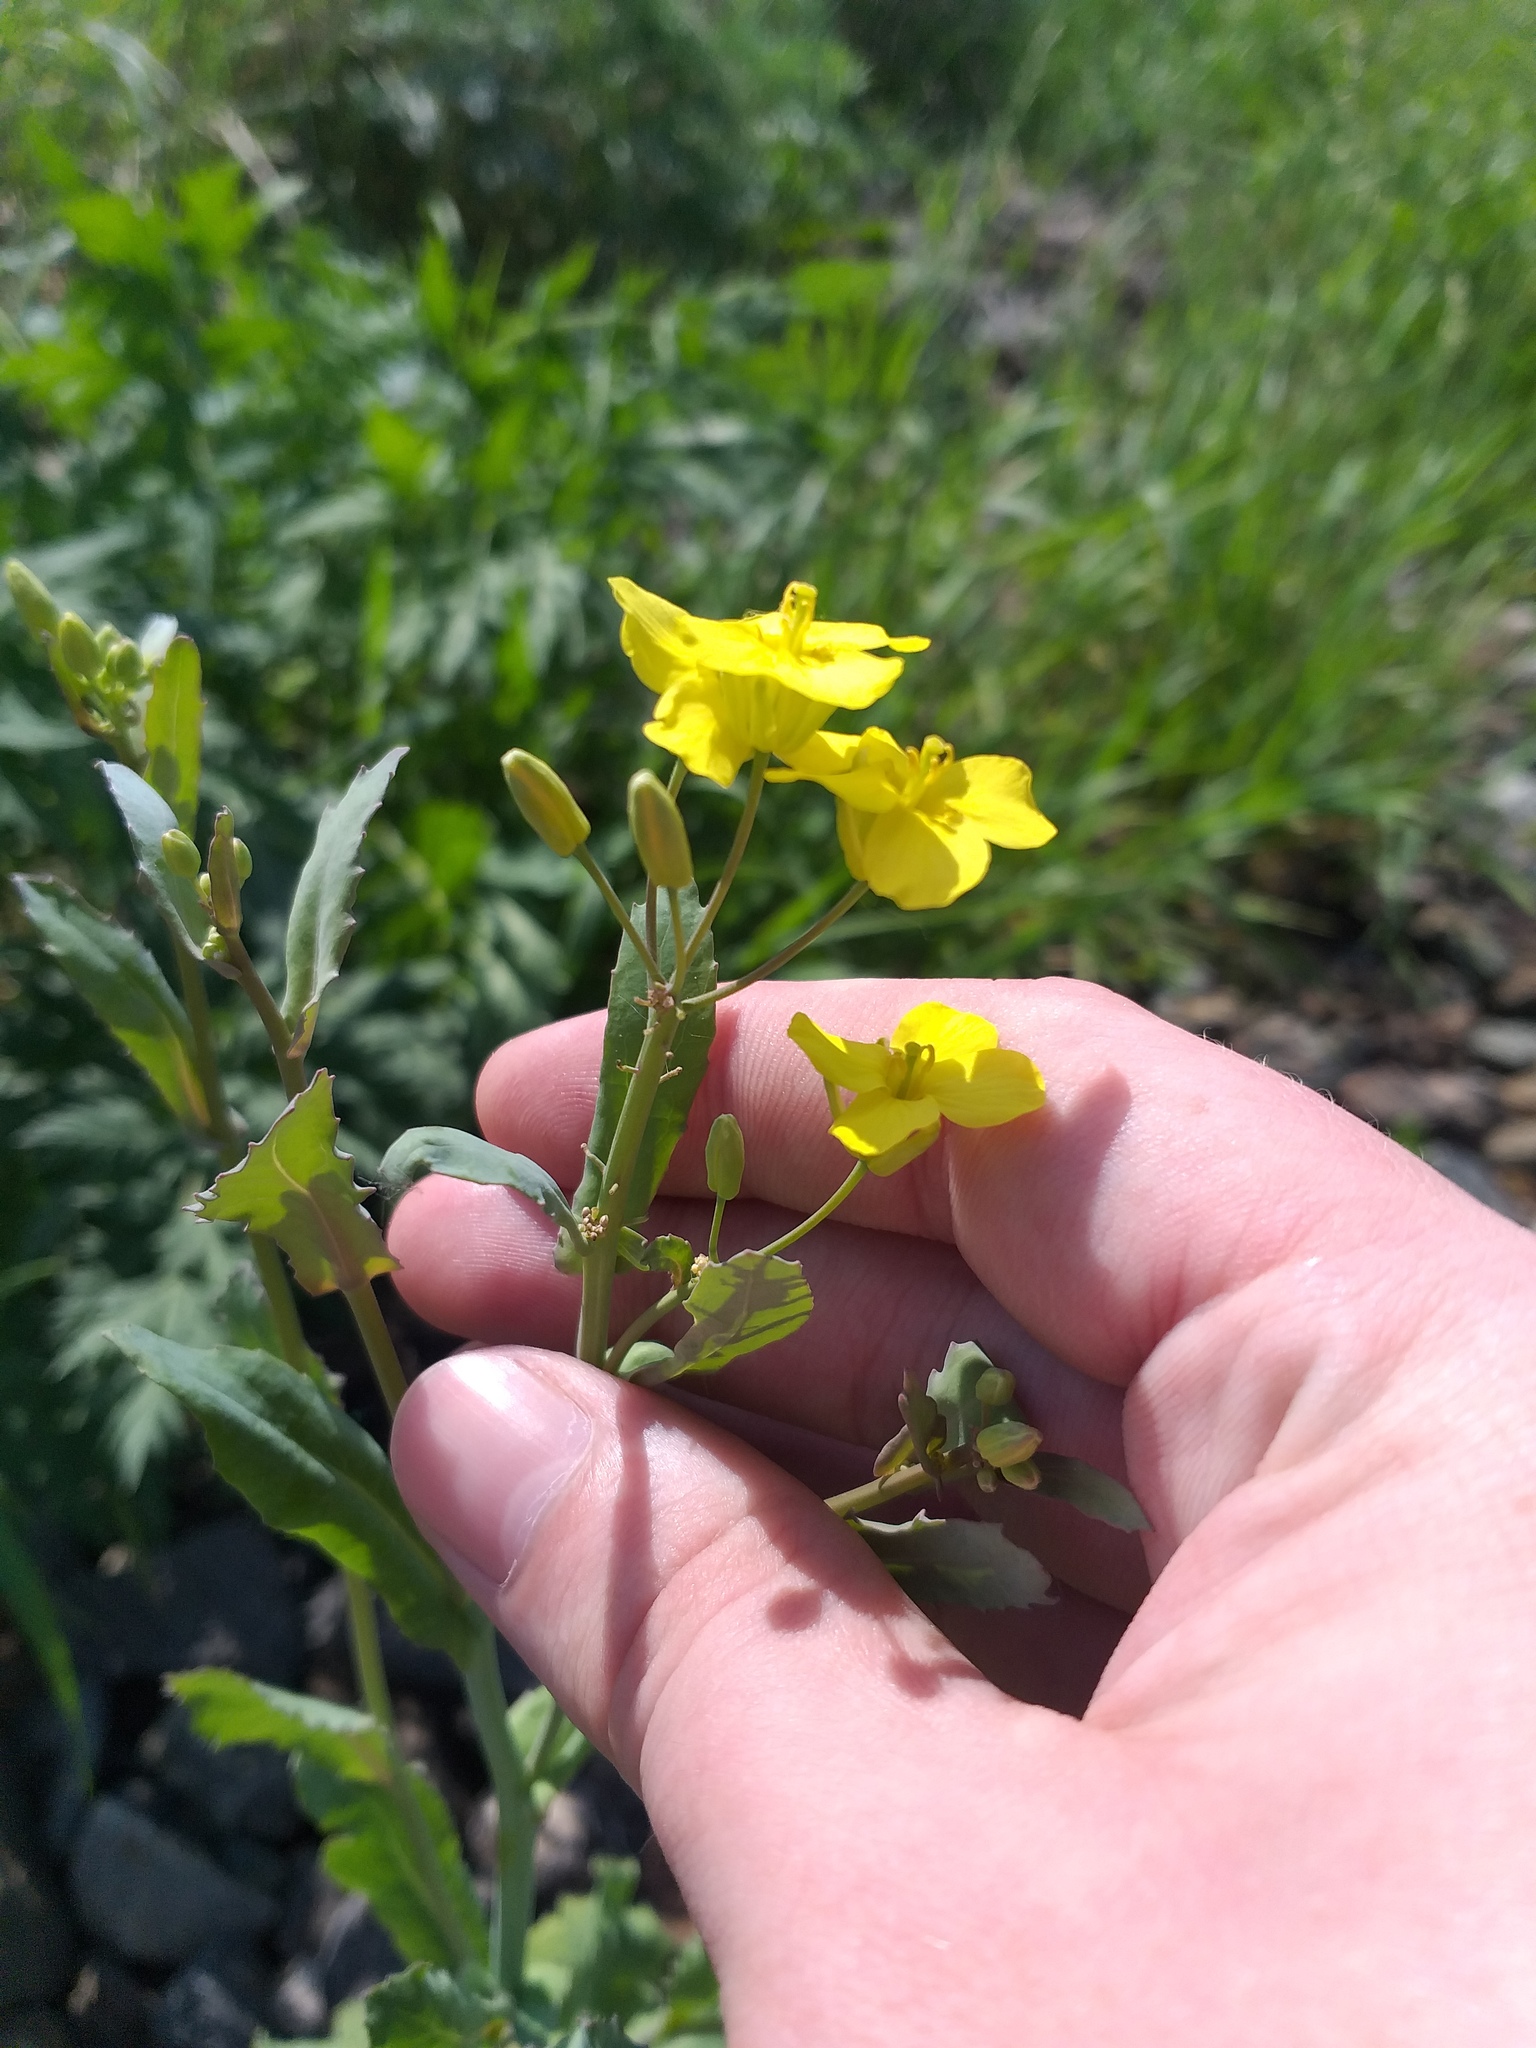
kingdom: Plantae
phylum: Tracheophyta
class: Magnoliopsida
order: Brassicales
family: Brassicaceae
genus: Brassica
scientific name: Brassica napus
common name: Rape
